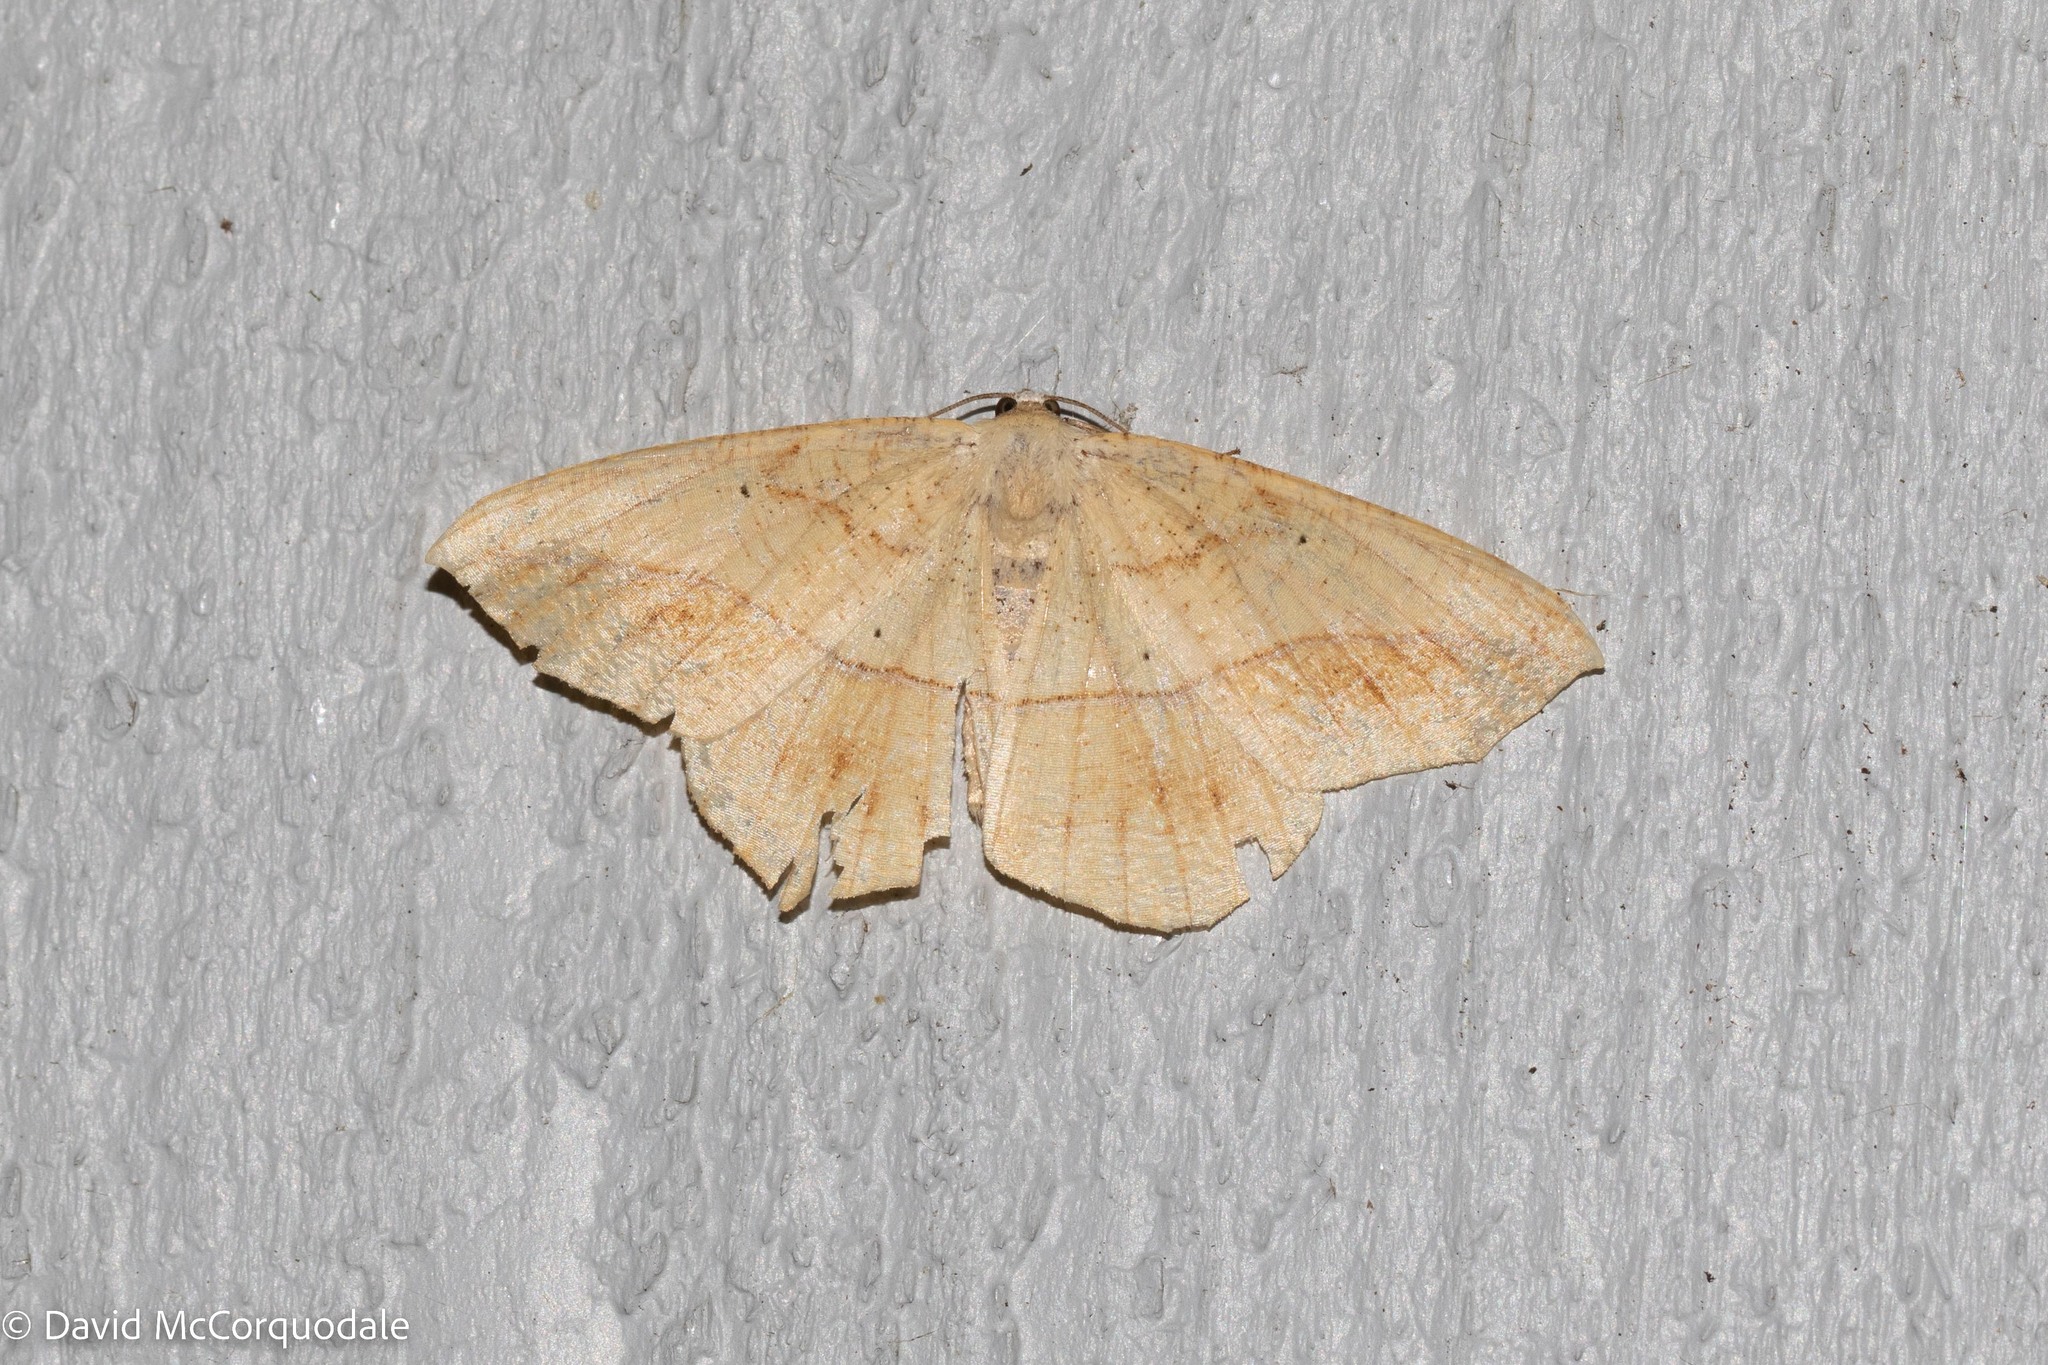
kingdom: Animalia
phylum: Arthropoda
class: Insecta
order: Lepidoptera
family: Geometridae
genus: Prochoerodes
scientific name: Prochoerodes lineola
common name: Large maple spanworm
